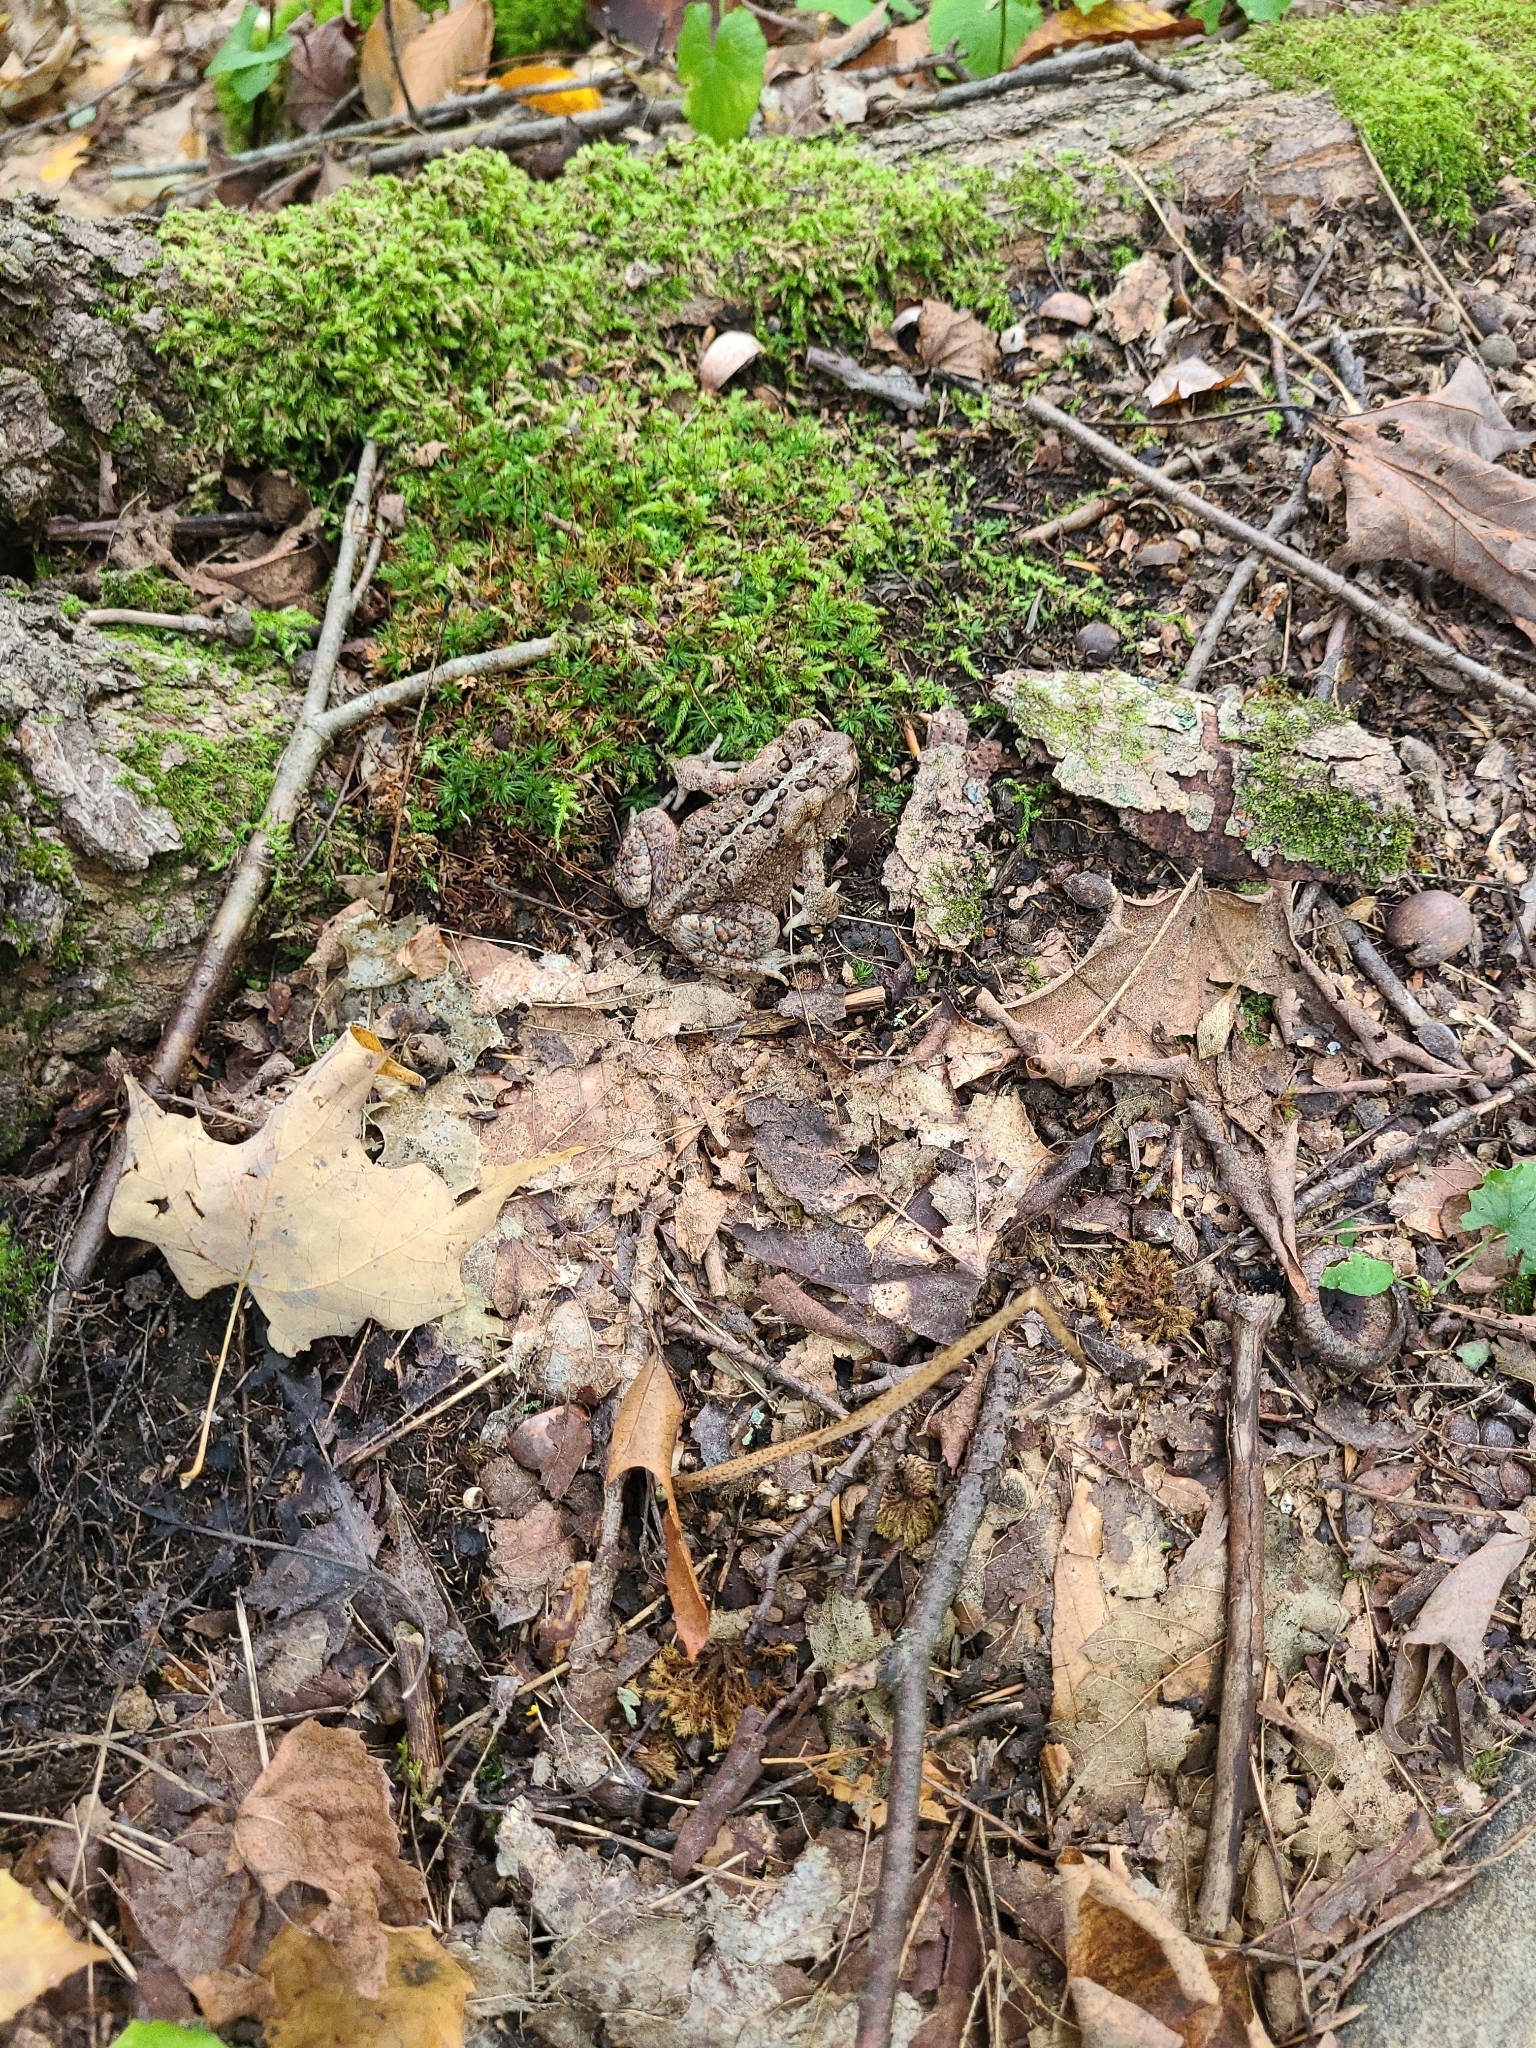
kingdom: Animalia
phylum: Chordata
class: Amphibia
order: Anura
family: Bufonidae
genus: Anaxyrus
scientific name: Anaxyrus americanus
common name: American toad
